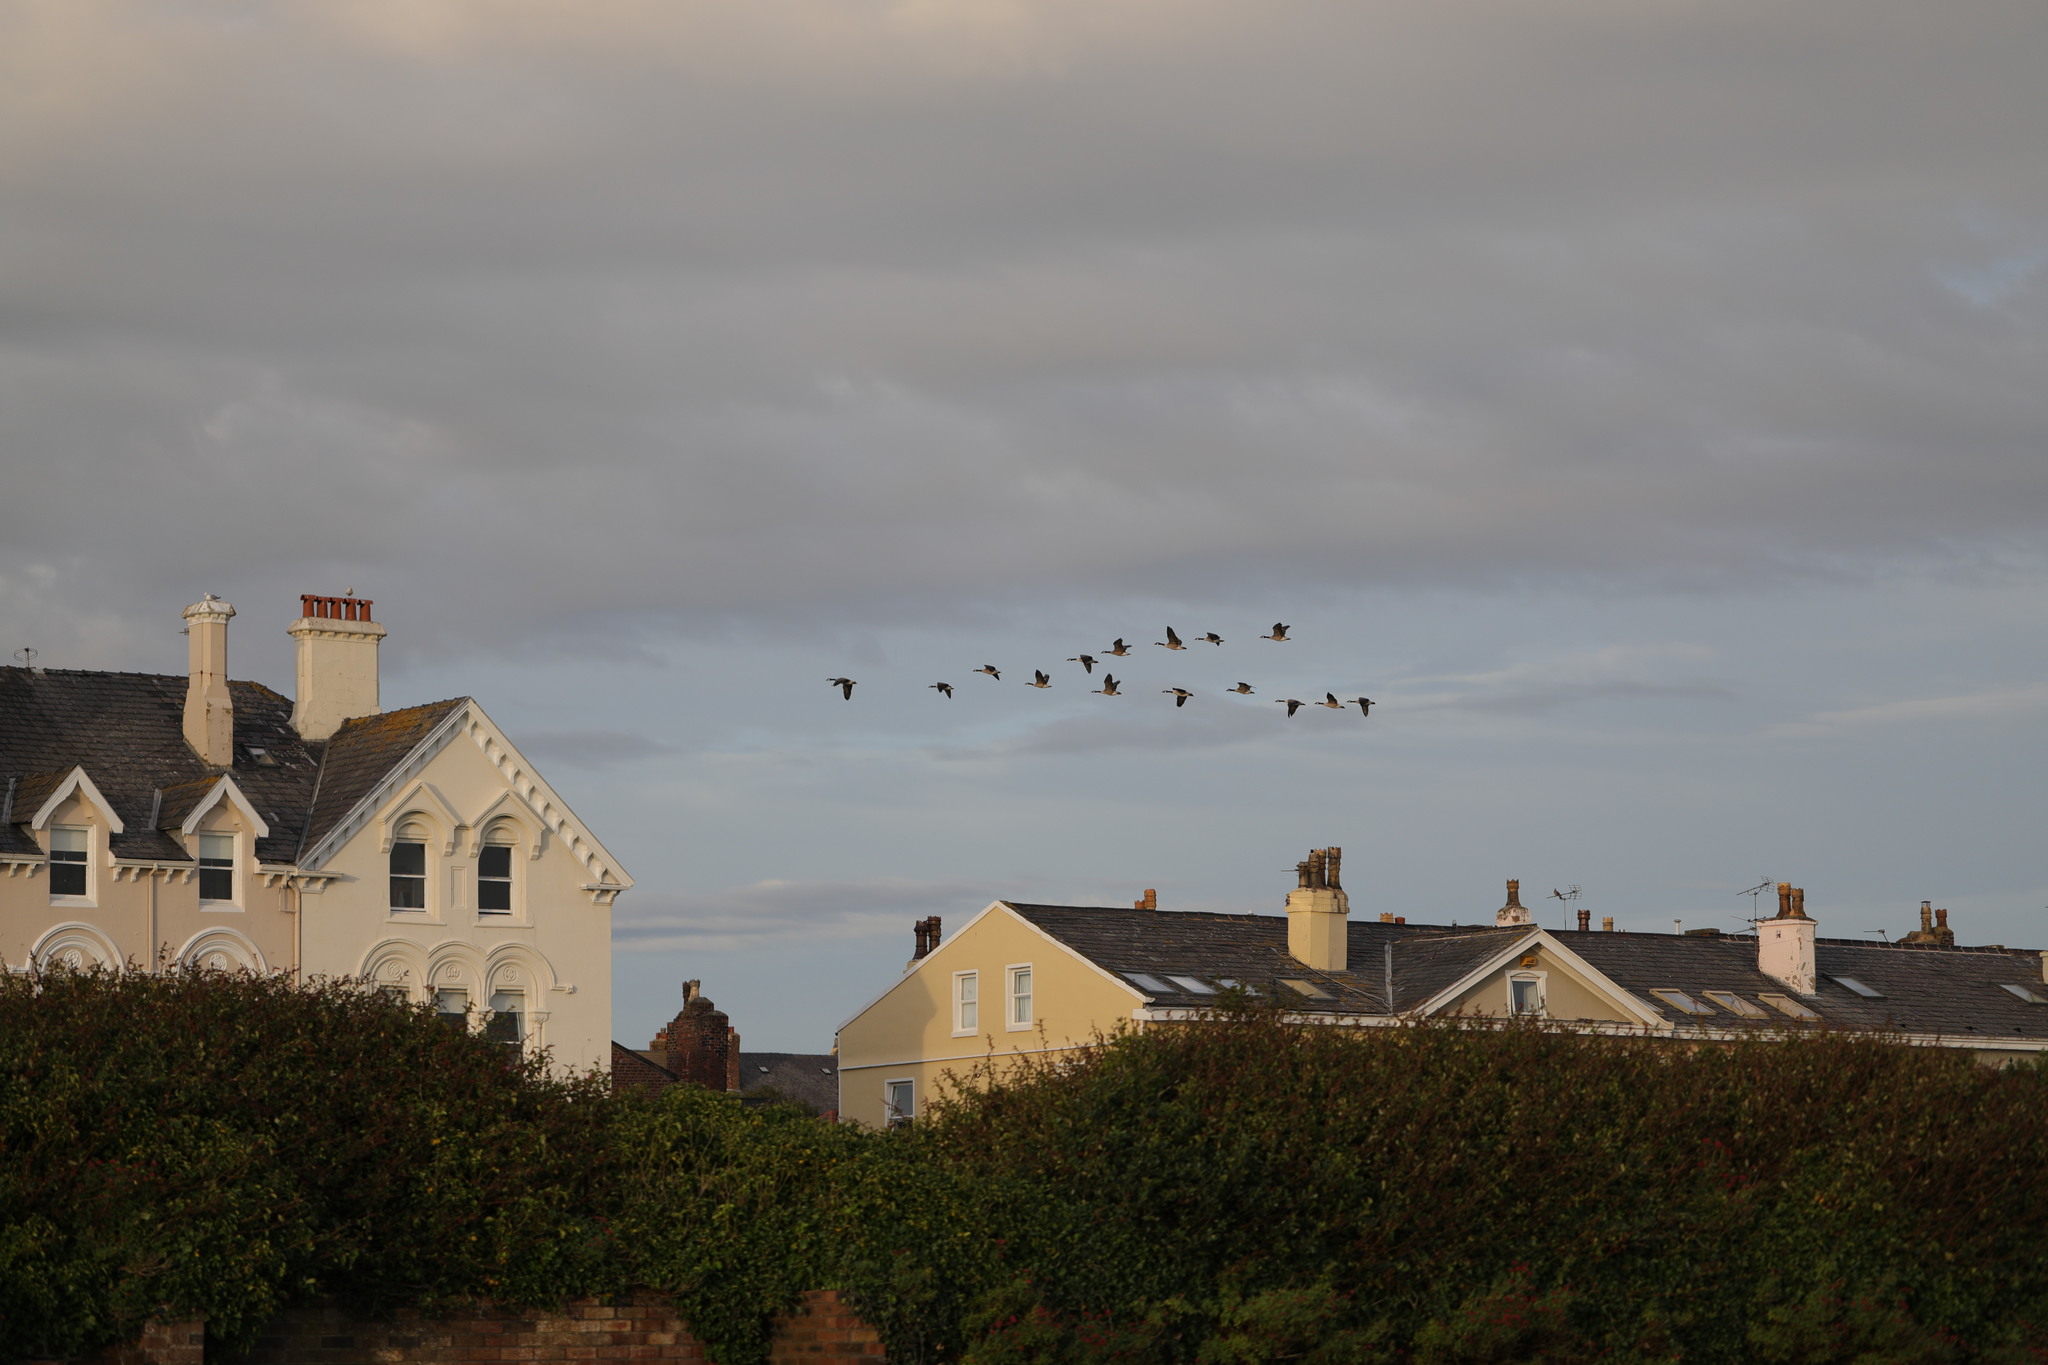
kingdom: Animalia
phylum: Chordata
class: Aves
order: Anseriformes
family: Anatidae
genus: Branta
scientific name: Branta canadensis
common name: Canada goose
